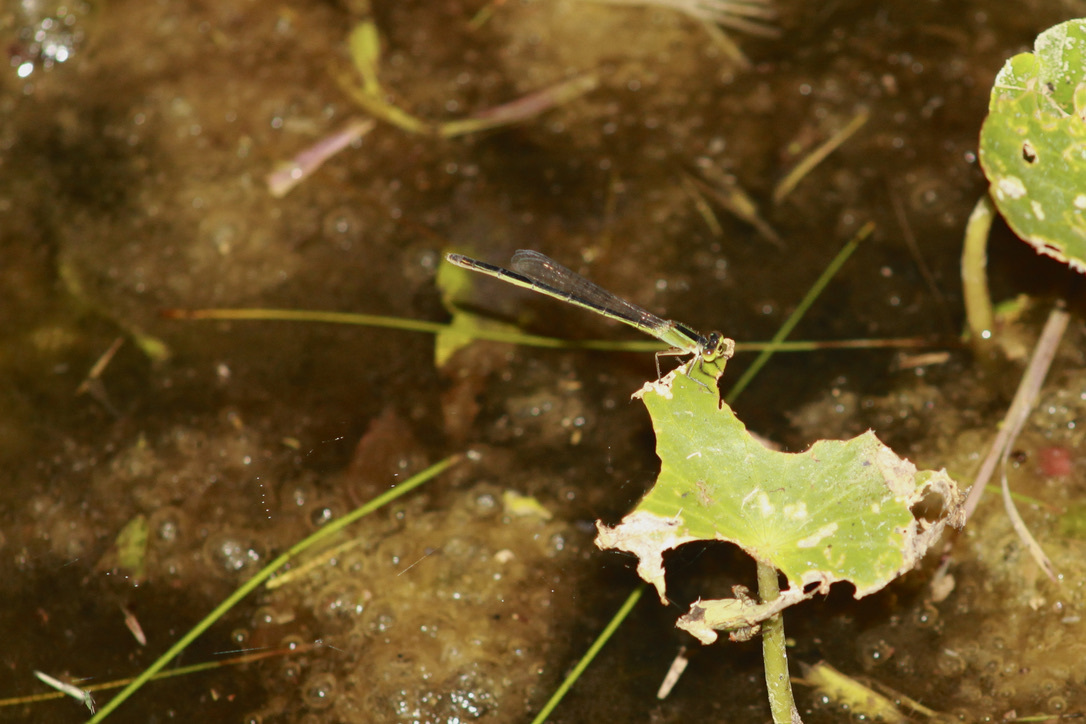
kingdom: Animalia
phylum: Arthropoda
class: Insecta
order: Odonata
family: Coenagrionidae
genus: Ischnura
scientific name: Ischnura ramburii
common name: Rambur's forktail
